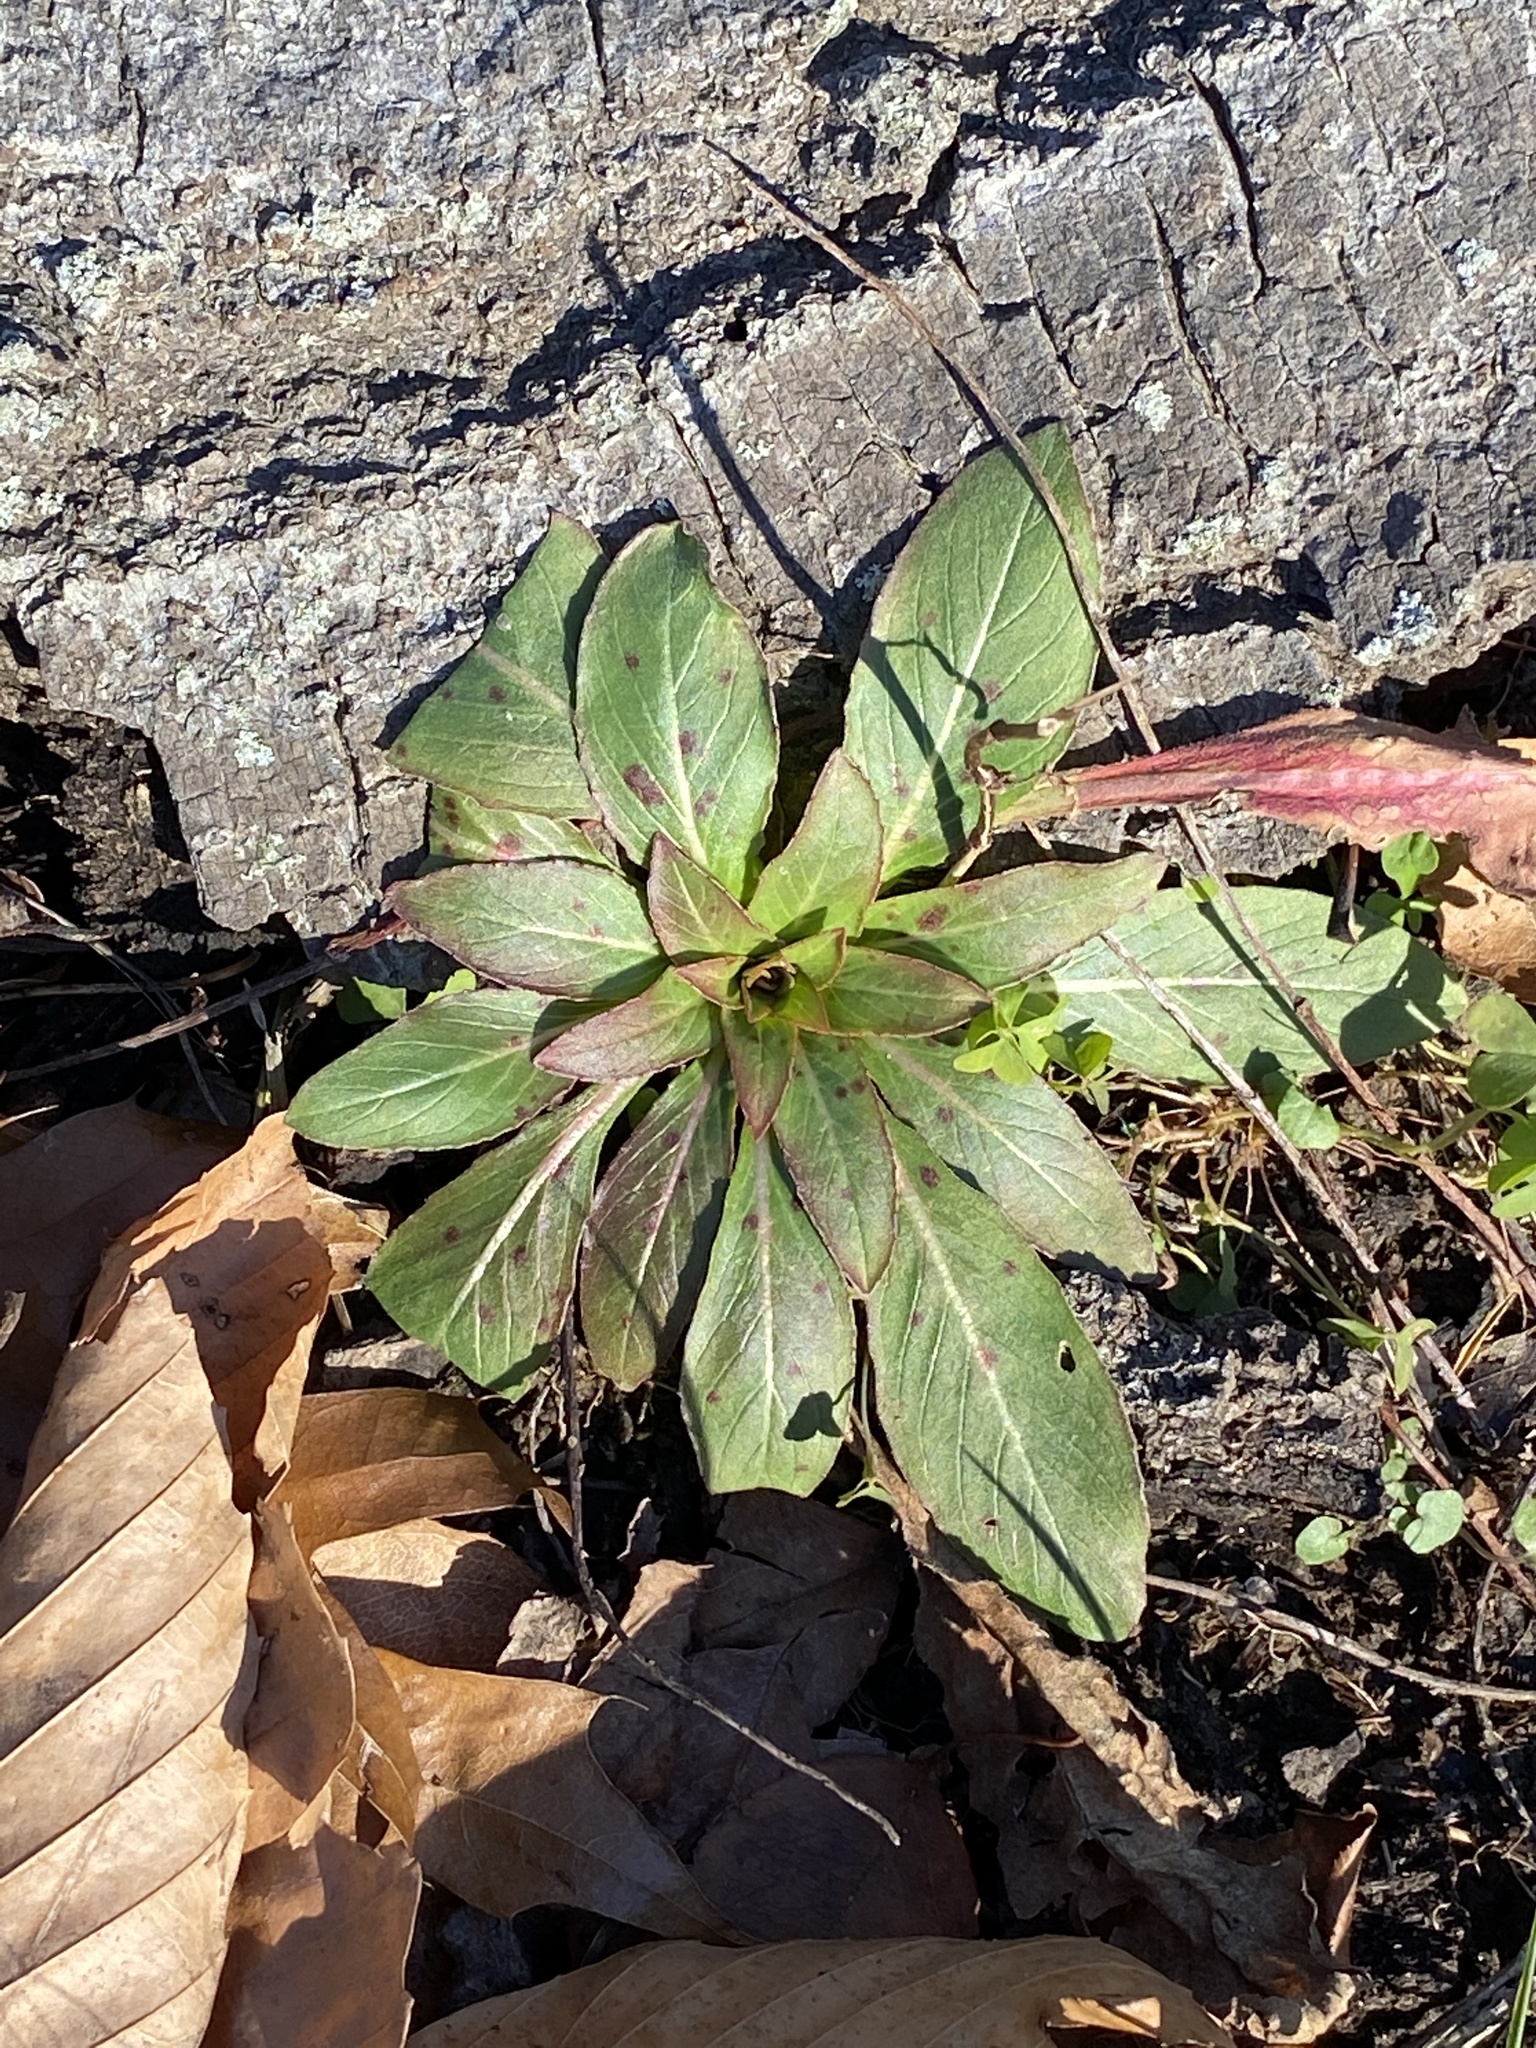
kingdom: Plantae
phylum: Tracheophyta
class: Magnoliopsida
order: Myrtales
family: Onagraceae
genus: Oenothera
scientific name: Oenothera biennis
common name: Common evening-primrose
